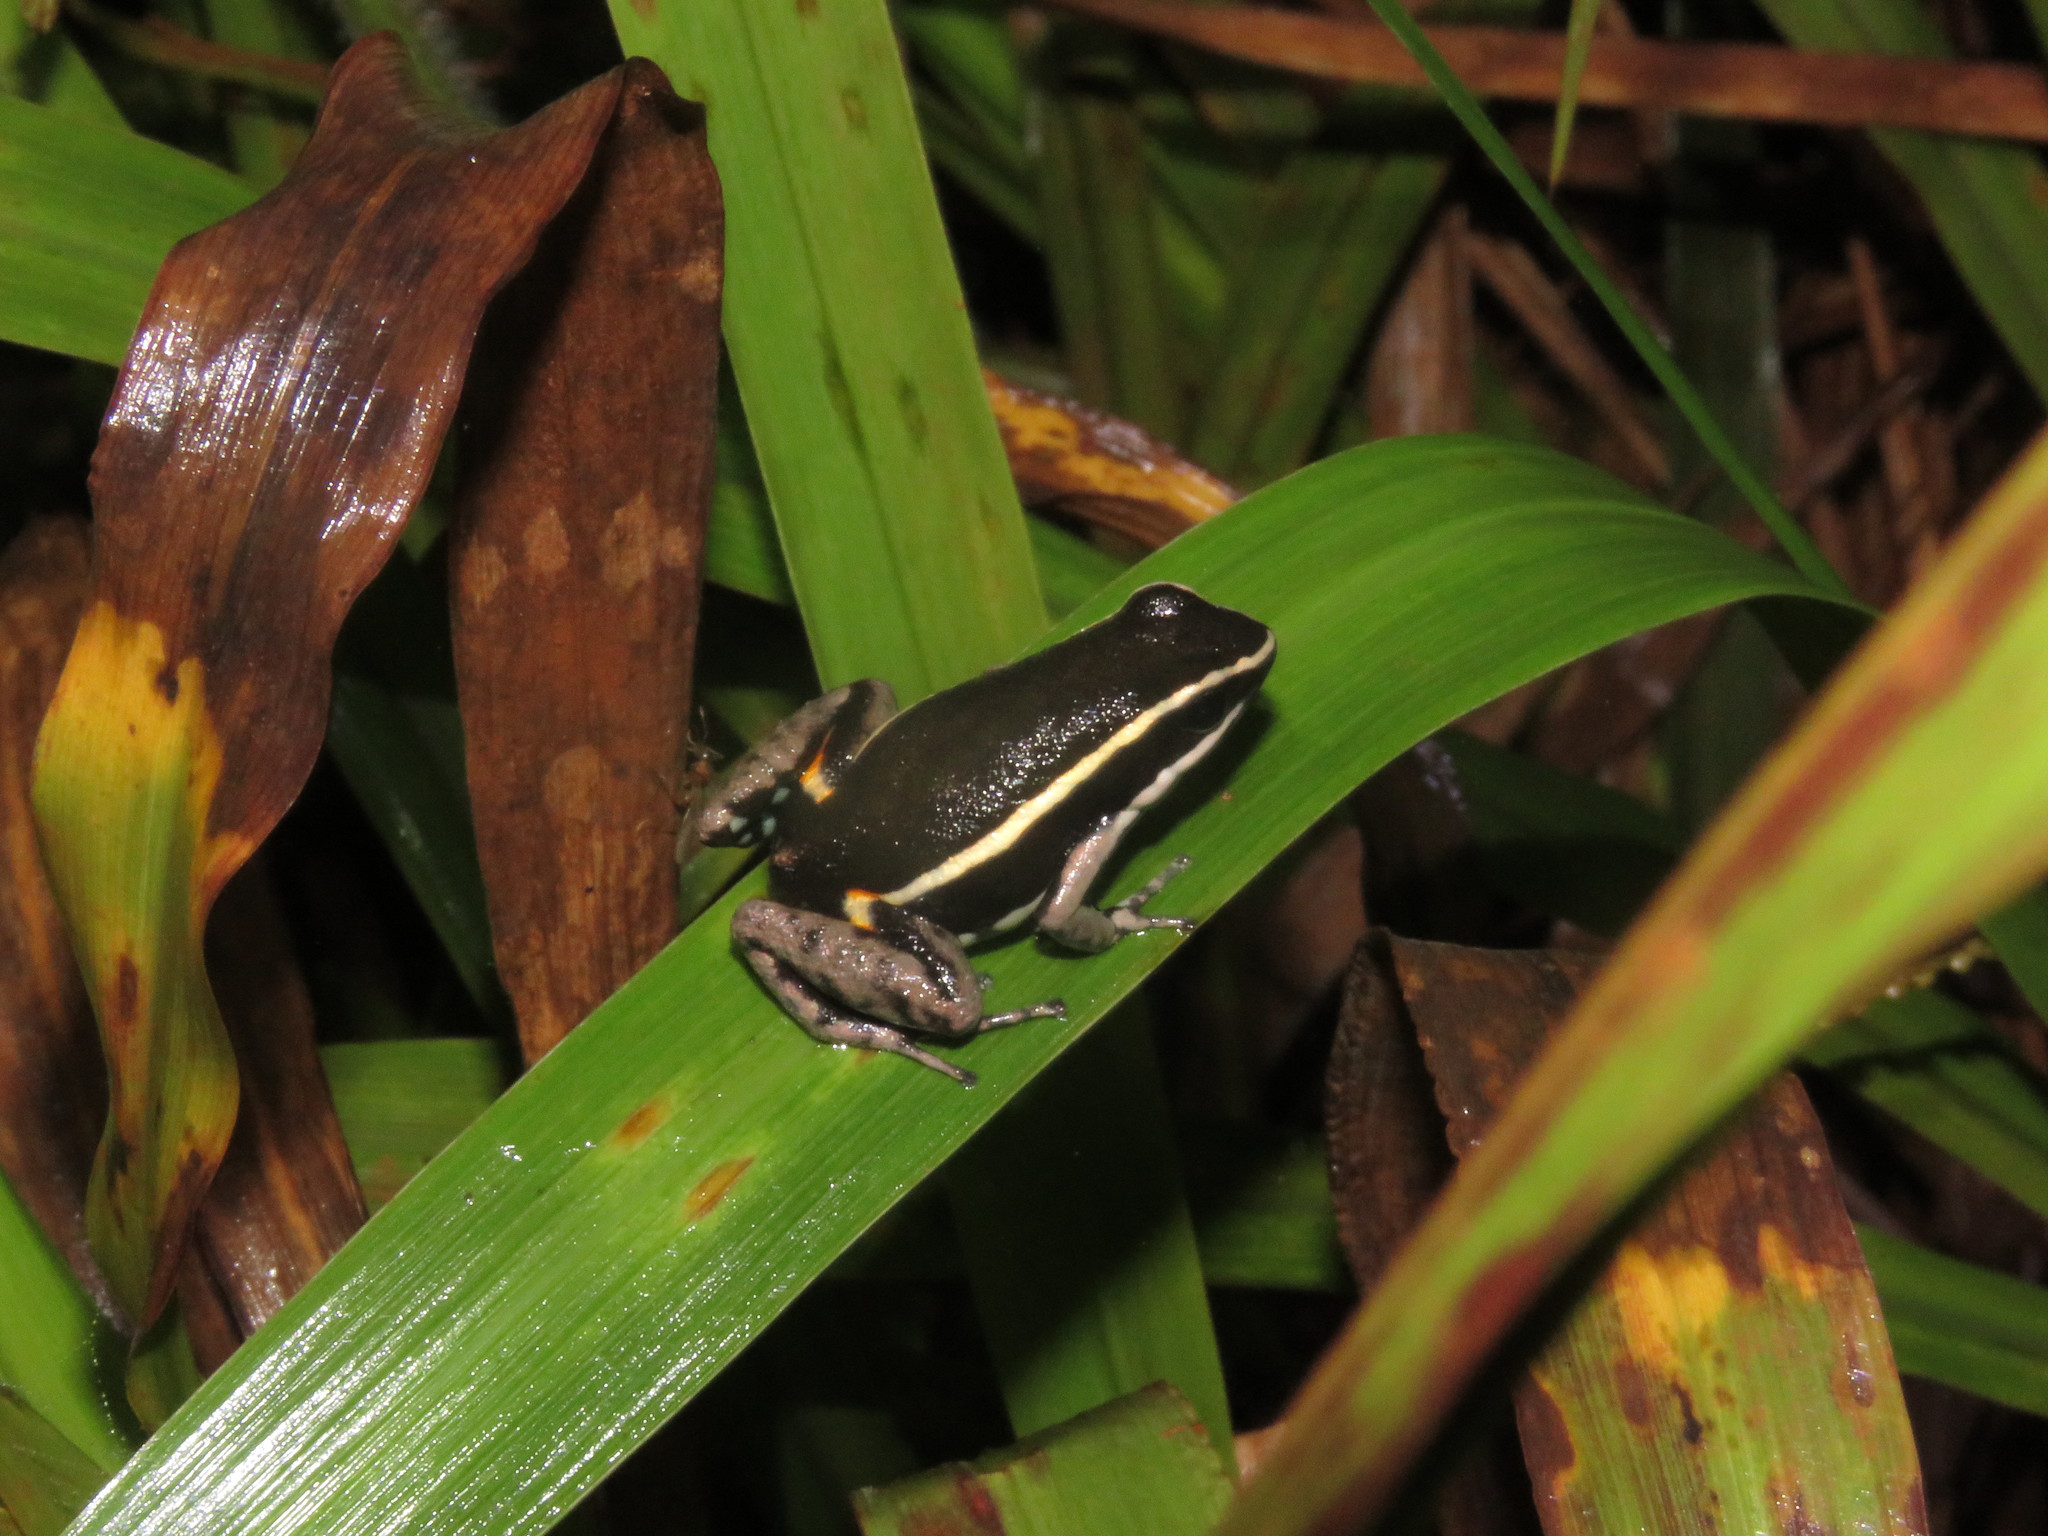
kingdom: Animalia
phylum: Chordata
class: Amphibia
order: Anura
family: Dendrobatidae
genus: Ameerega
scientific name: Ameerega picta
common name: Spot-legged poison frog
